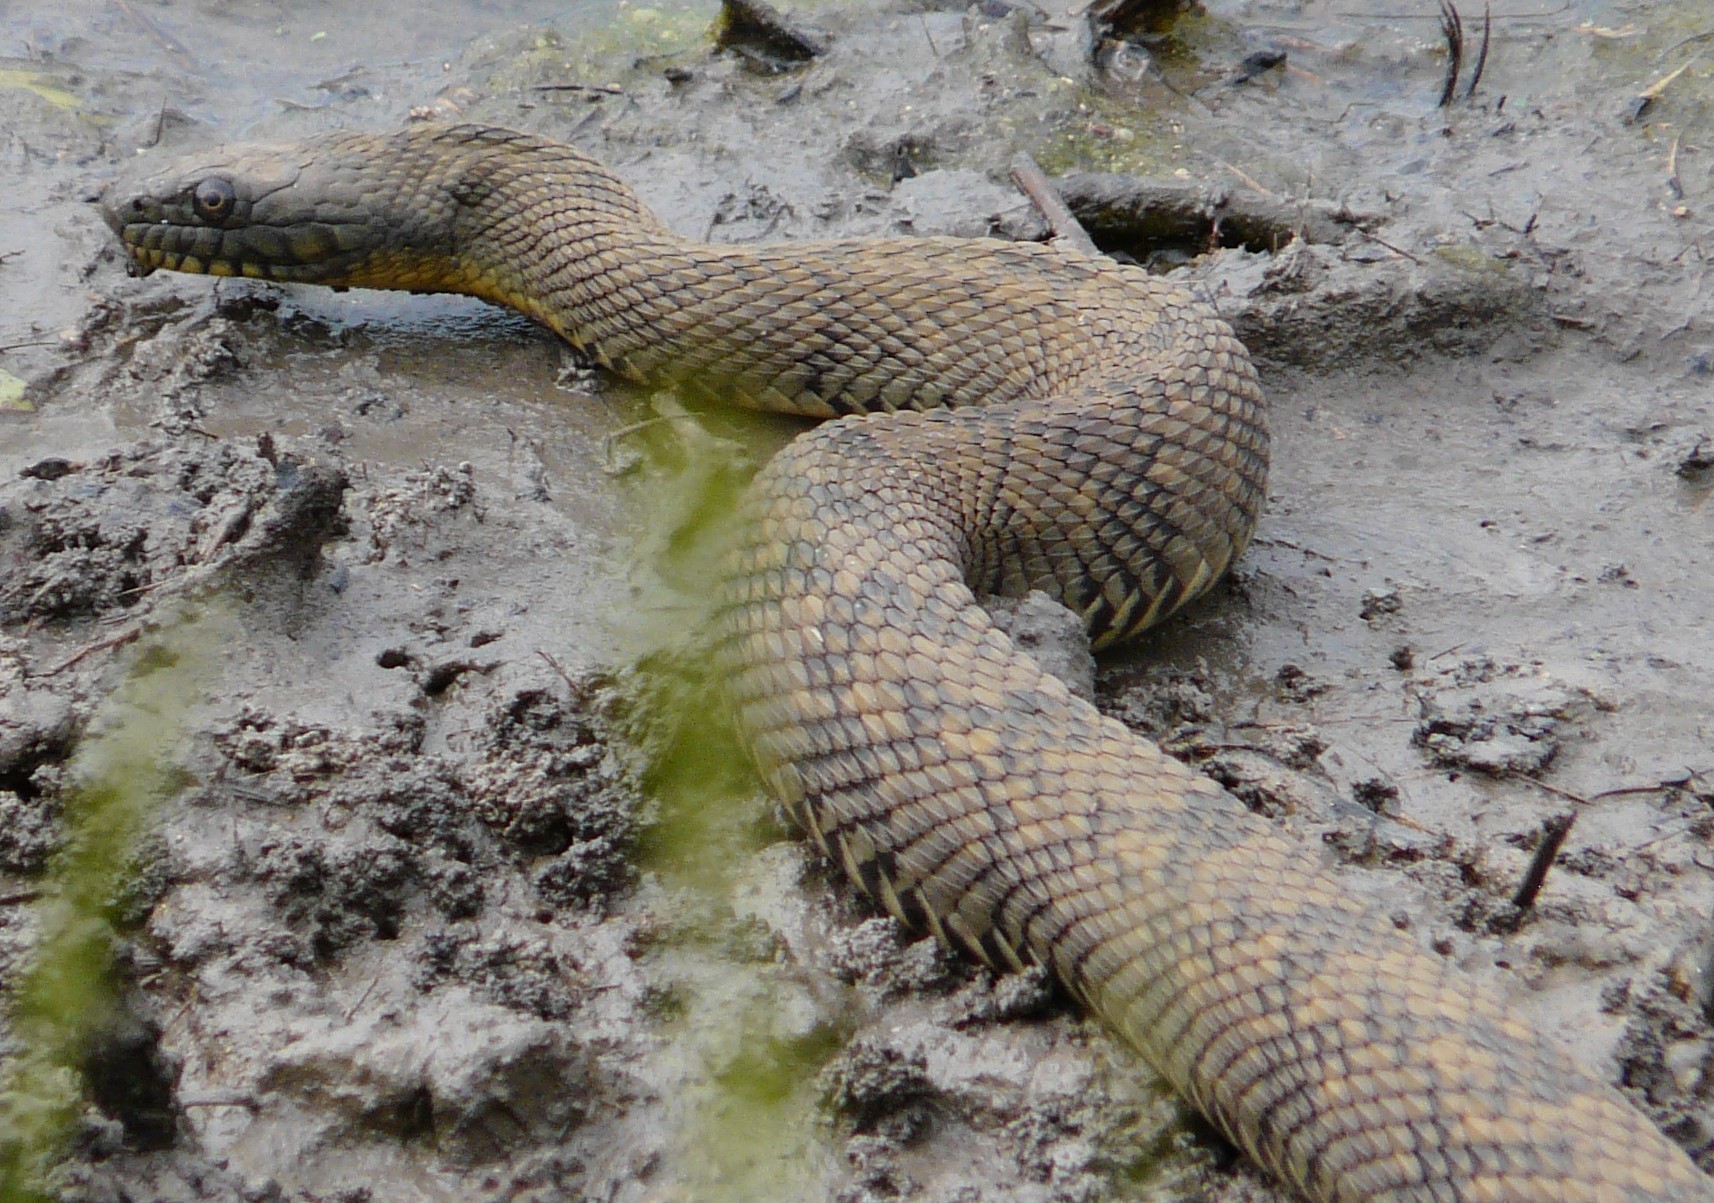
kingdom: Animalia
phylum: Chordata
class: Squamata
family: Colubridae
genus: Nerodia
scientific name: Nerodia rhombifer
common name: Diamondback water snake
